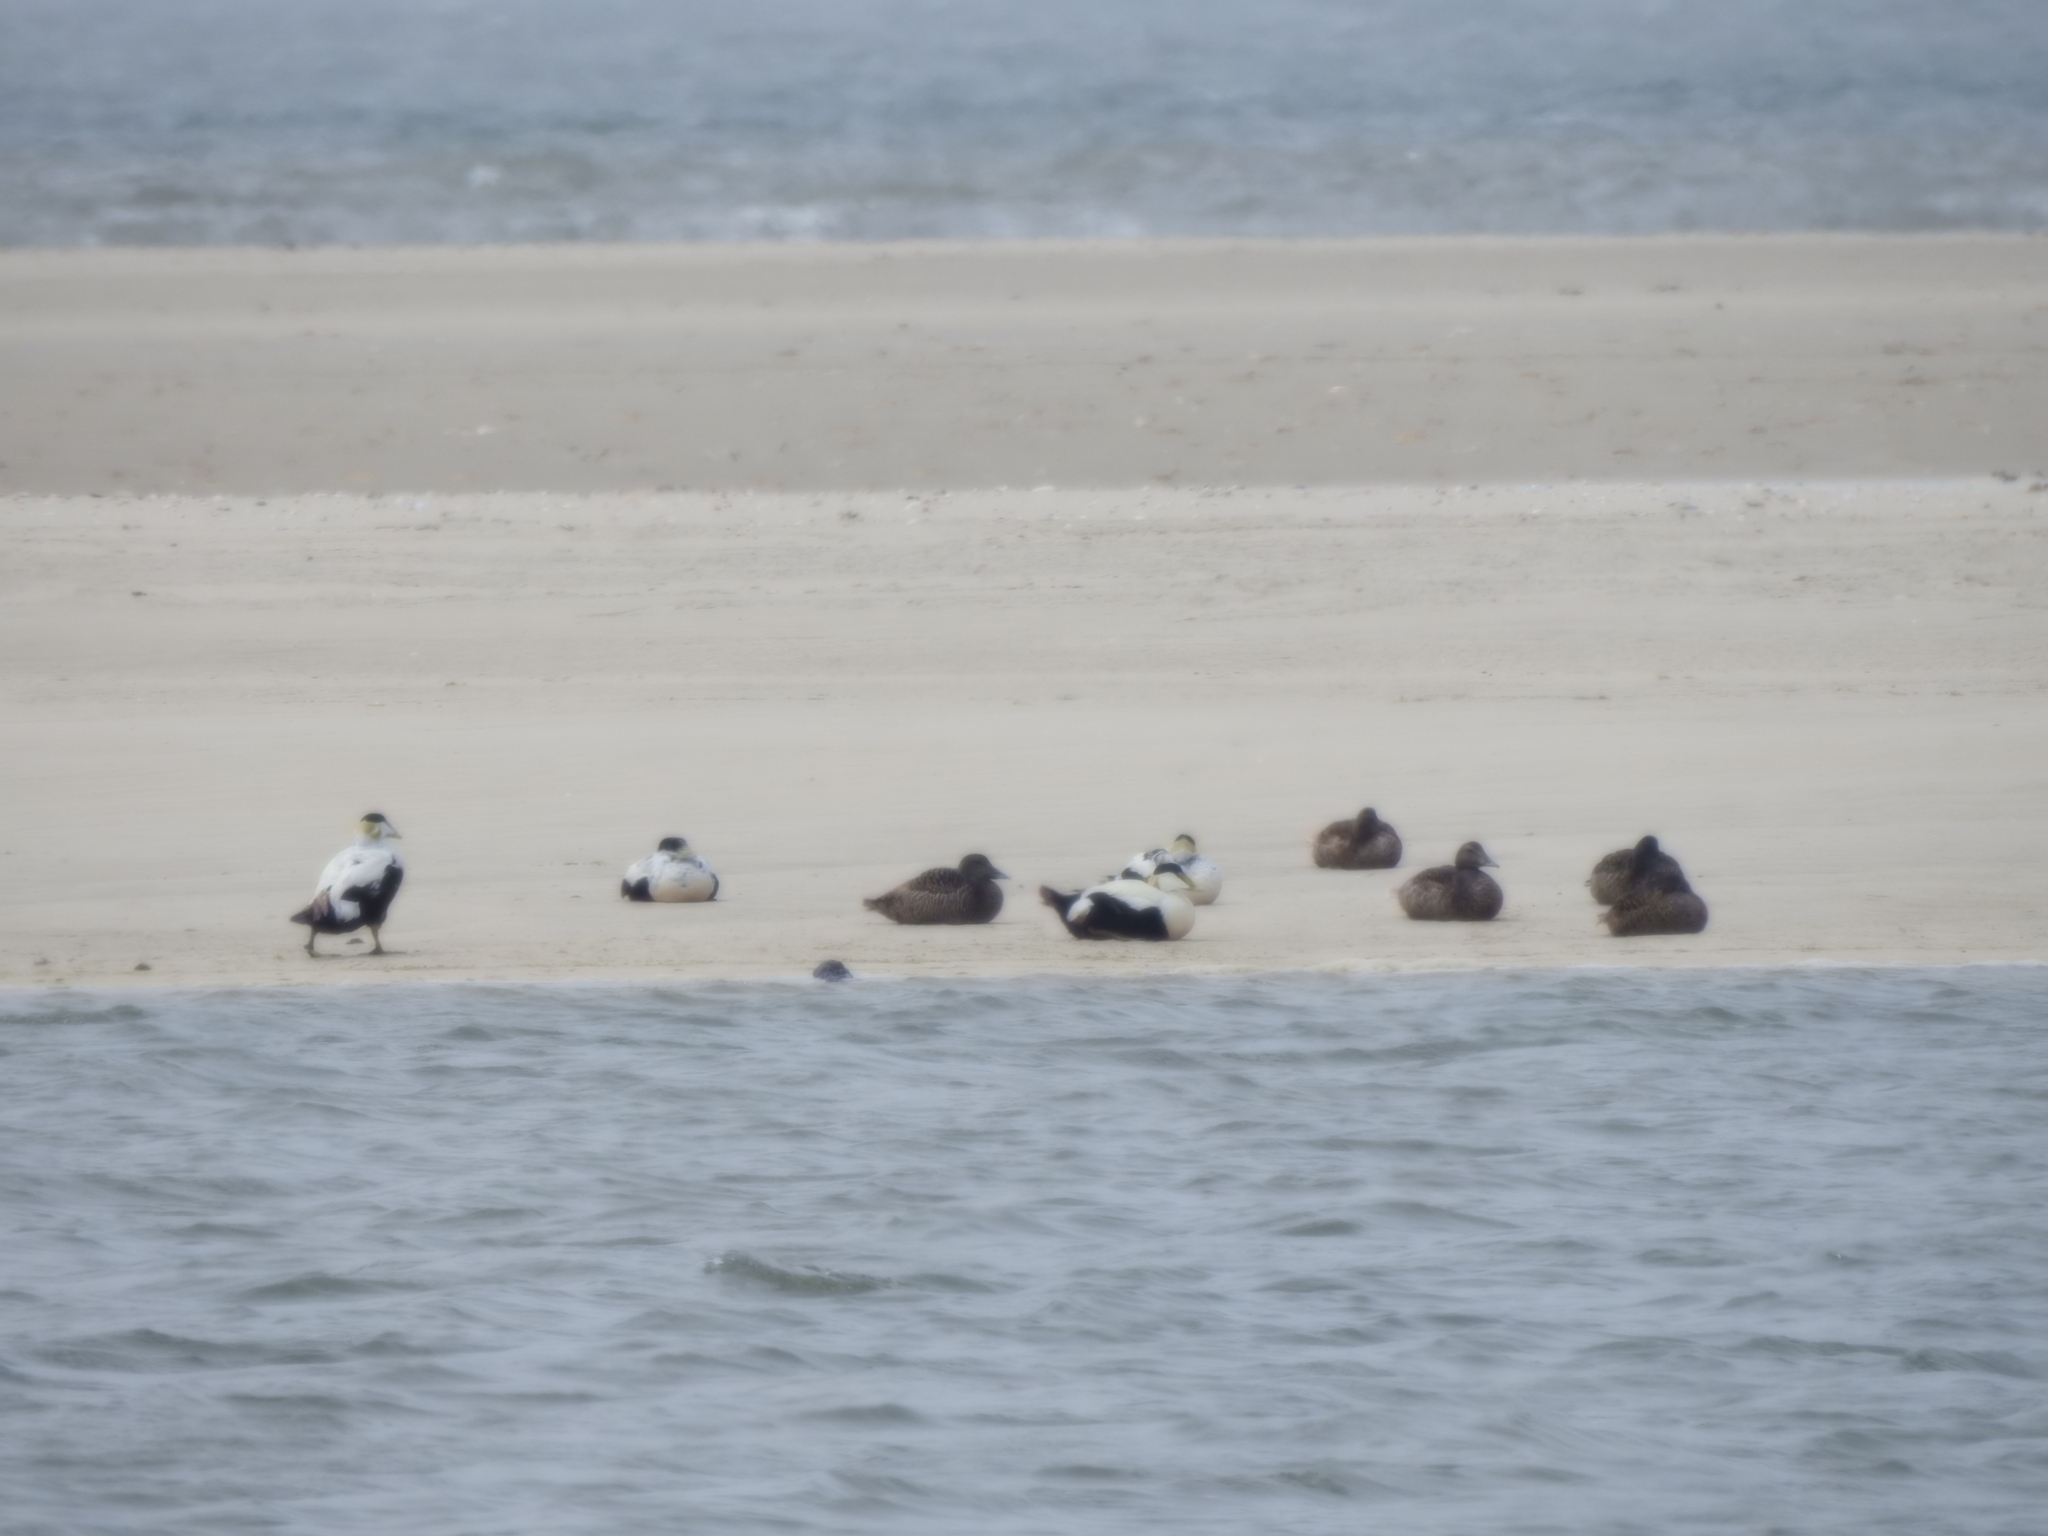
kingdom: Animalia
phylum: Chordata
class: Aves
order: Anseriformes
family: Anatidae
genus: Somateria
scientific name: Somateria mollissima
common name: Common eider
